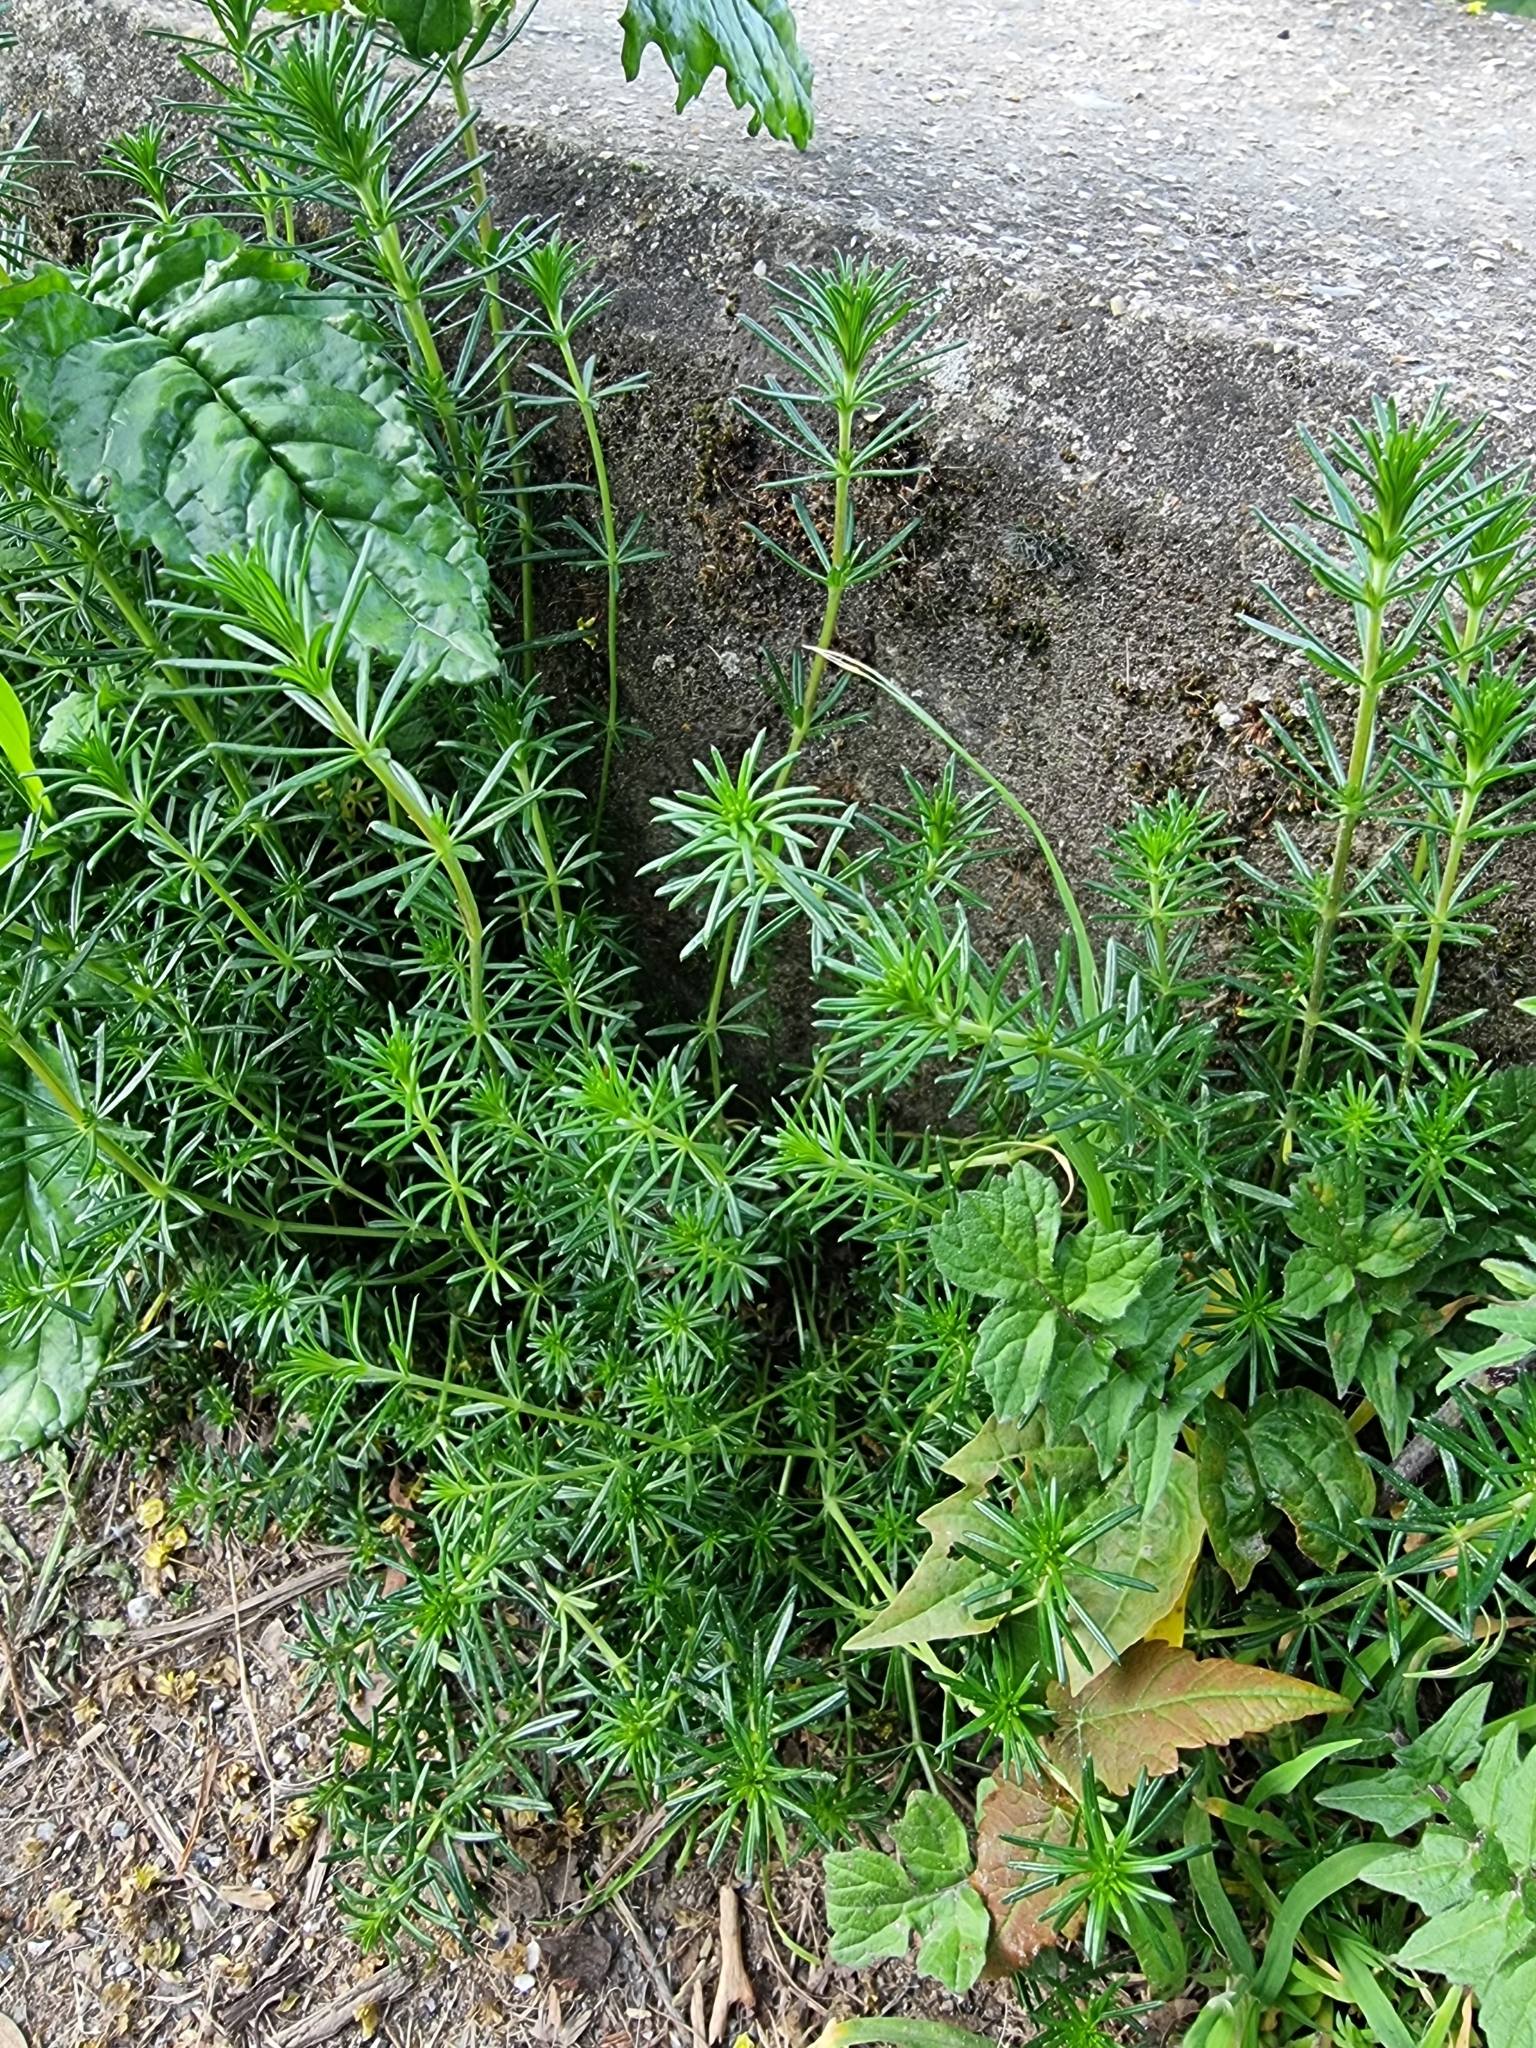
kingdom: Plantae
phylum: Tracheophyta
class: Magnoliopsida
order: Gentianales
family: Rubiaceae
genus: Galium
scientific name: Galium verum
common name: Lady's bedstraw
